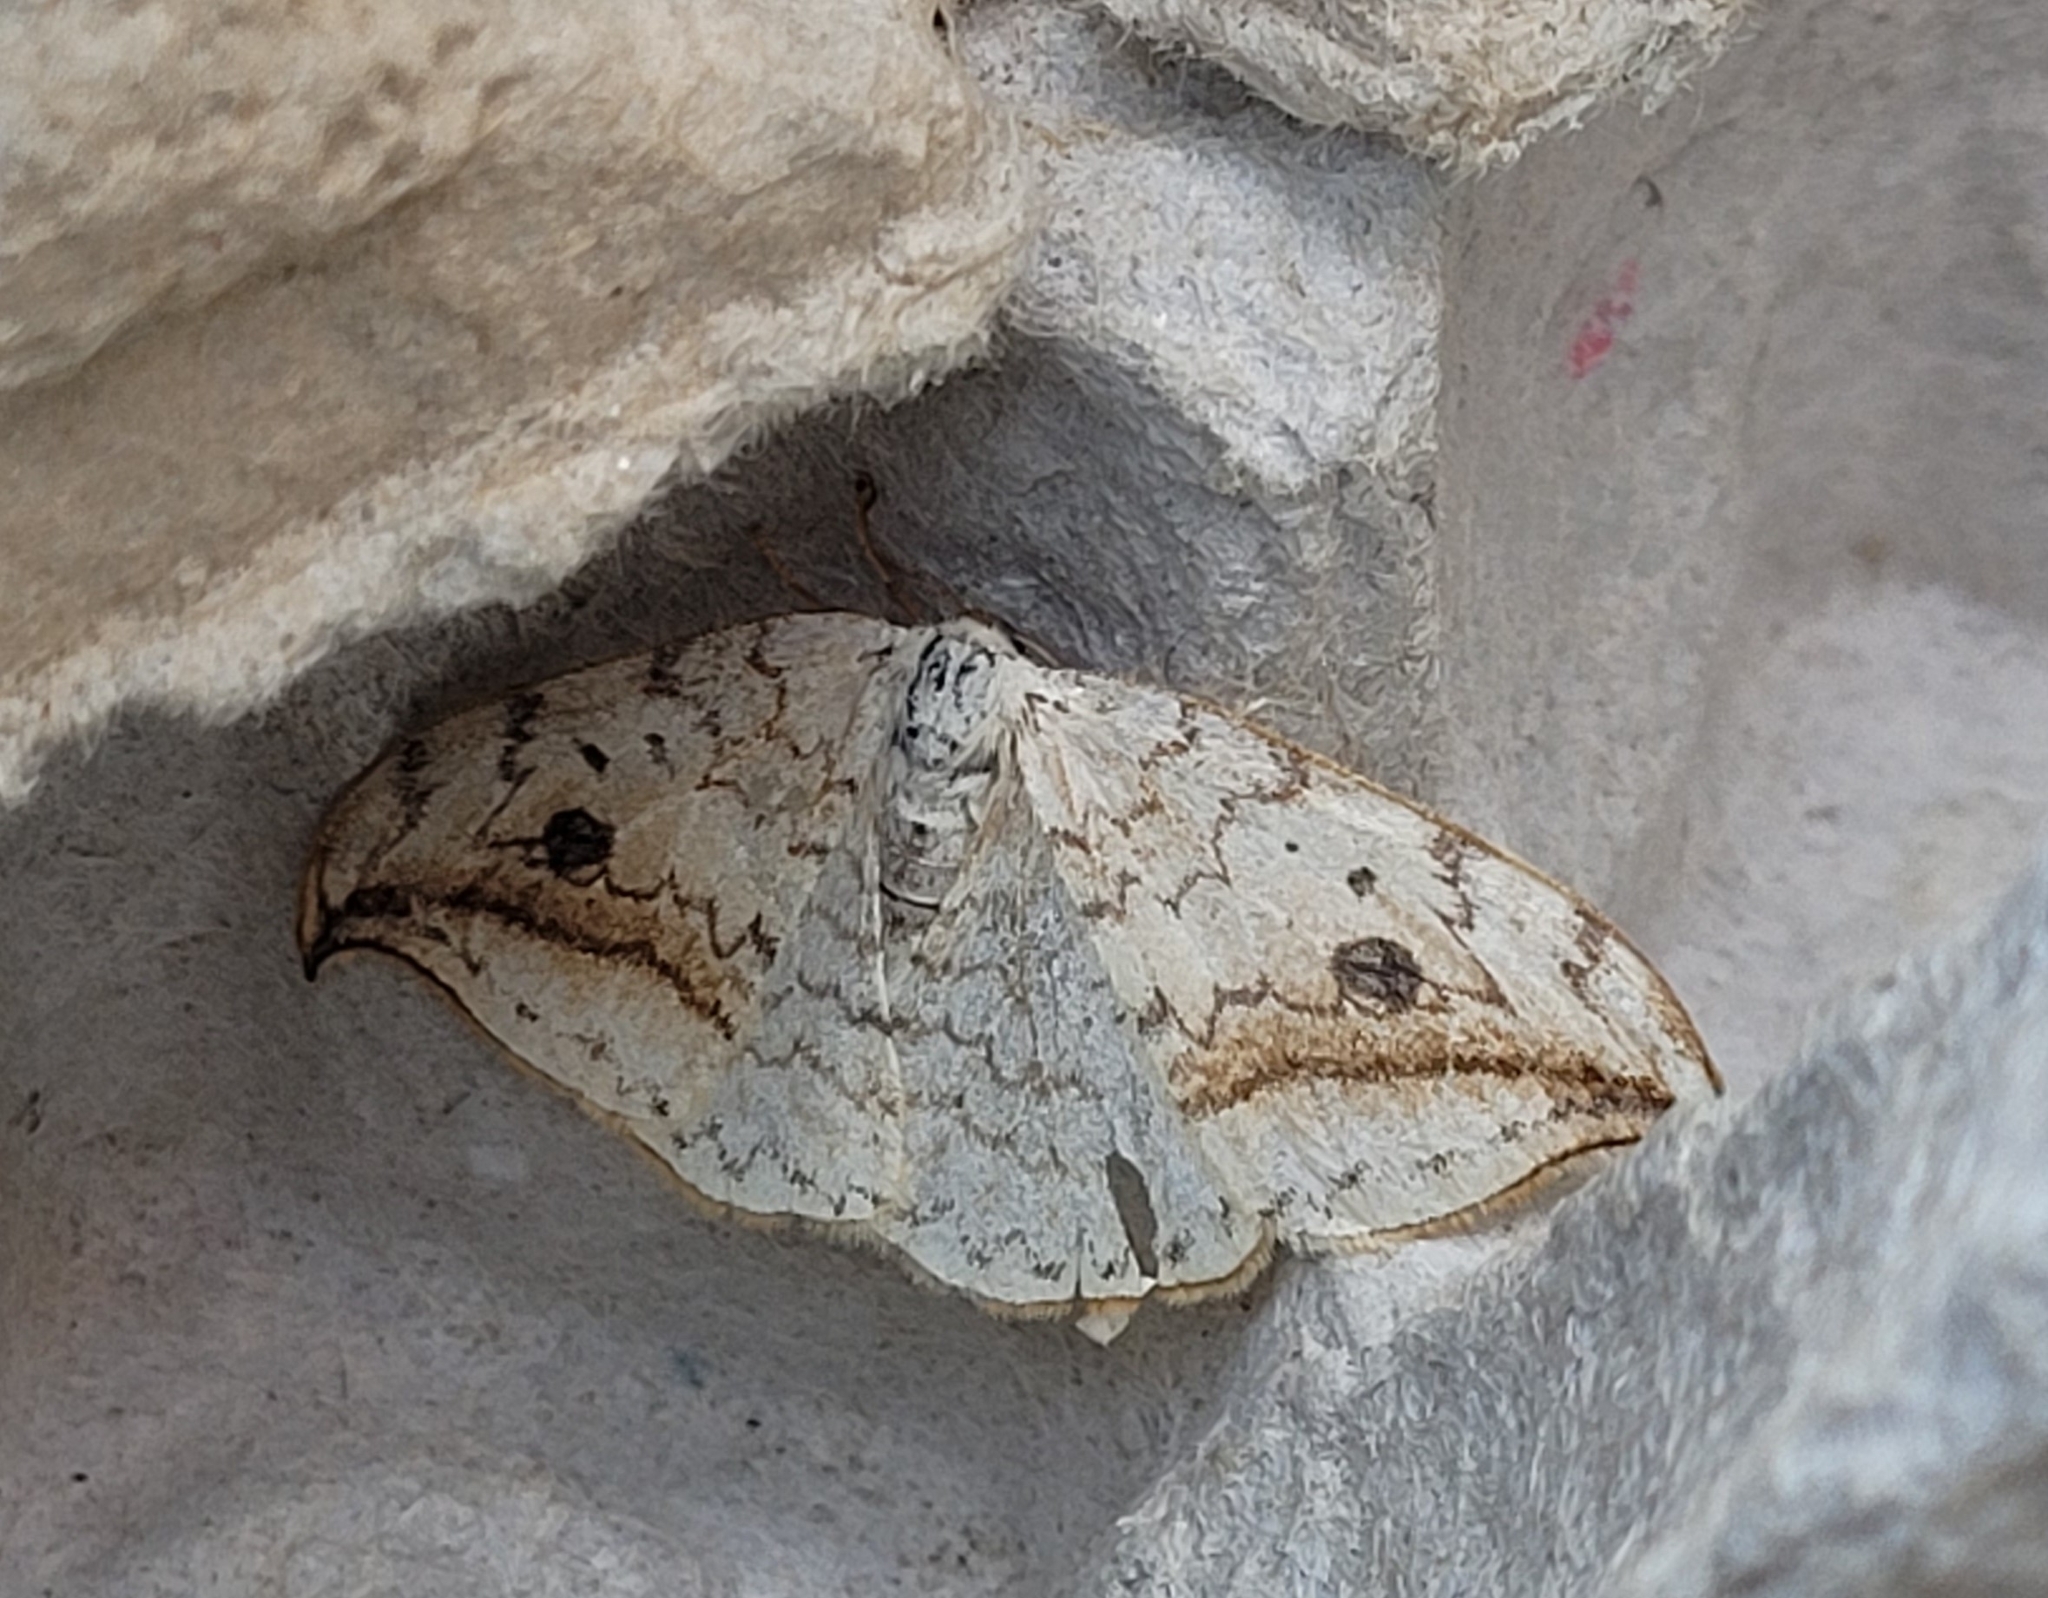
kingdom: Animalia
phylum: Arthropoda
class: Insecta
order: Lepidoptera
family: Drepanidae
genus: Drepana
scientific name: Drepana falcataria
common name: Pebble hook-tip
